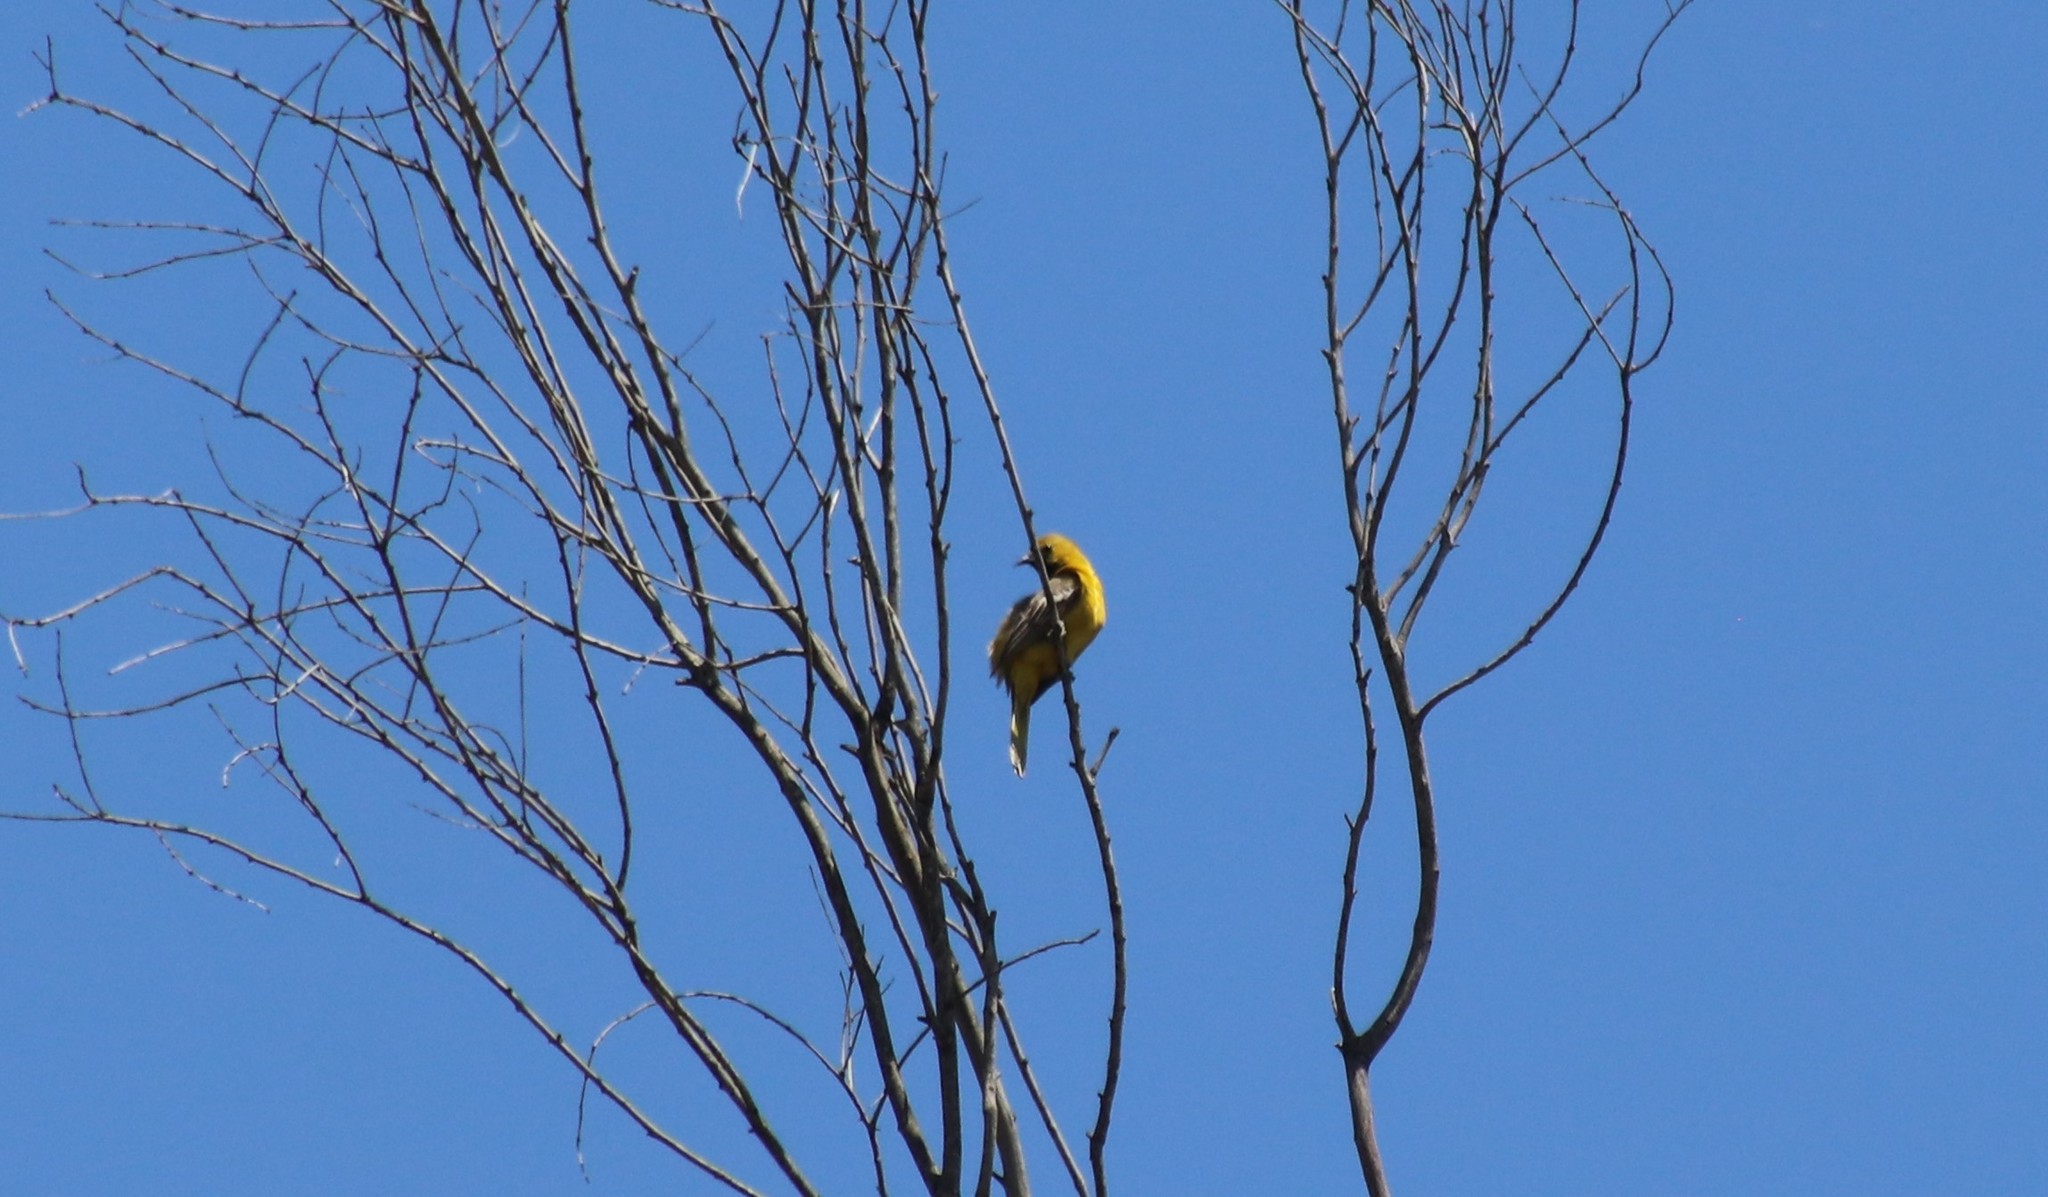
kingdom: Animalia
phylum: Chordata
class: Aves
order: Passeriformes
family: Icteridae
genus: Icterus
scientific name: Icterus cucullatus
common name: Hooded oriole
